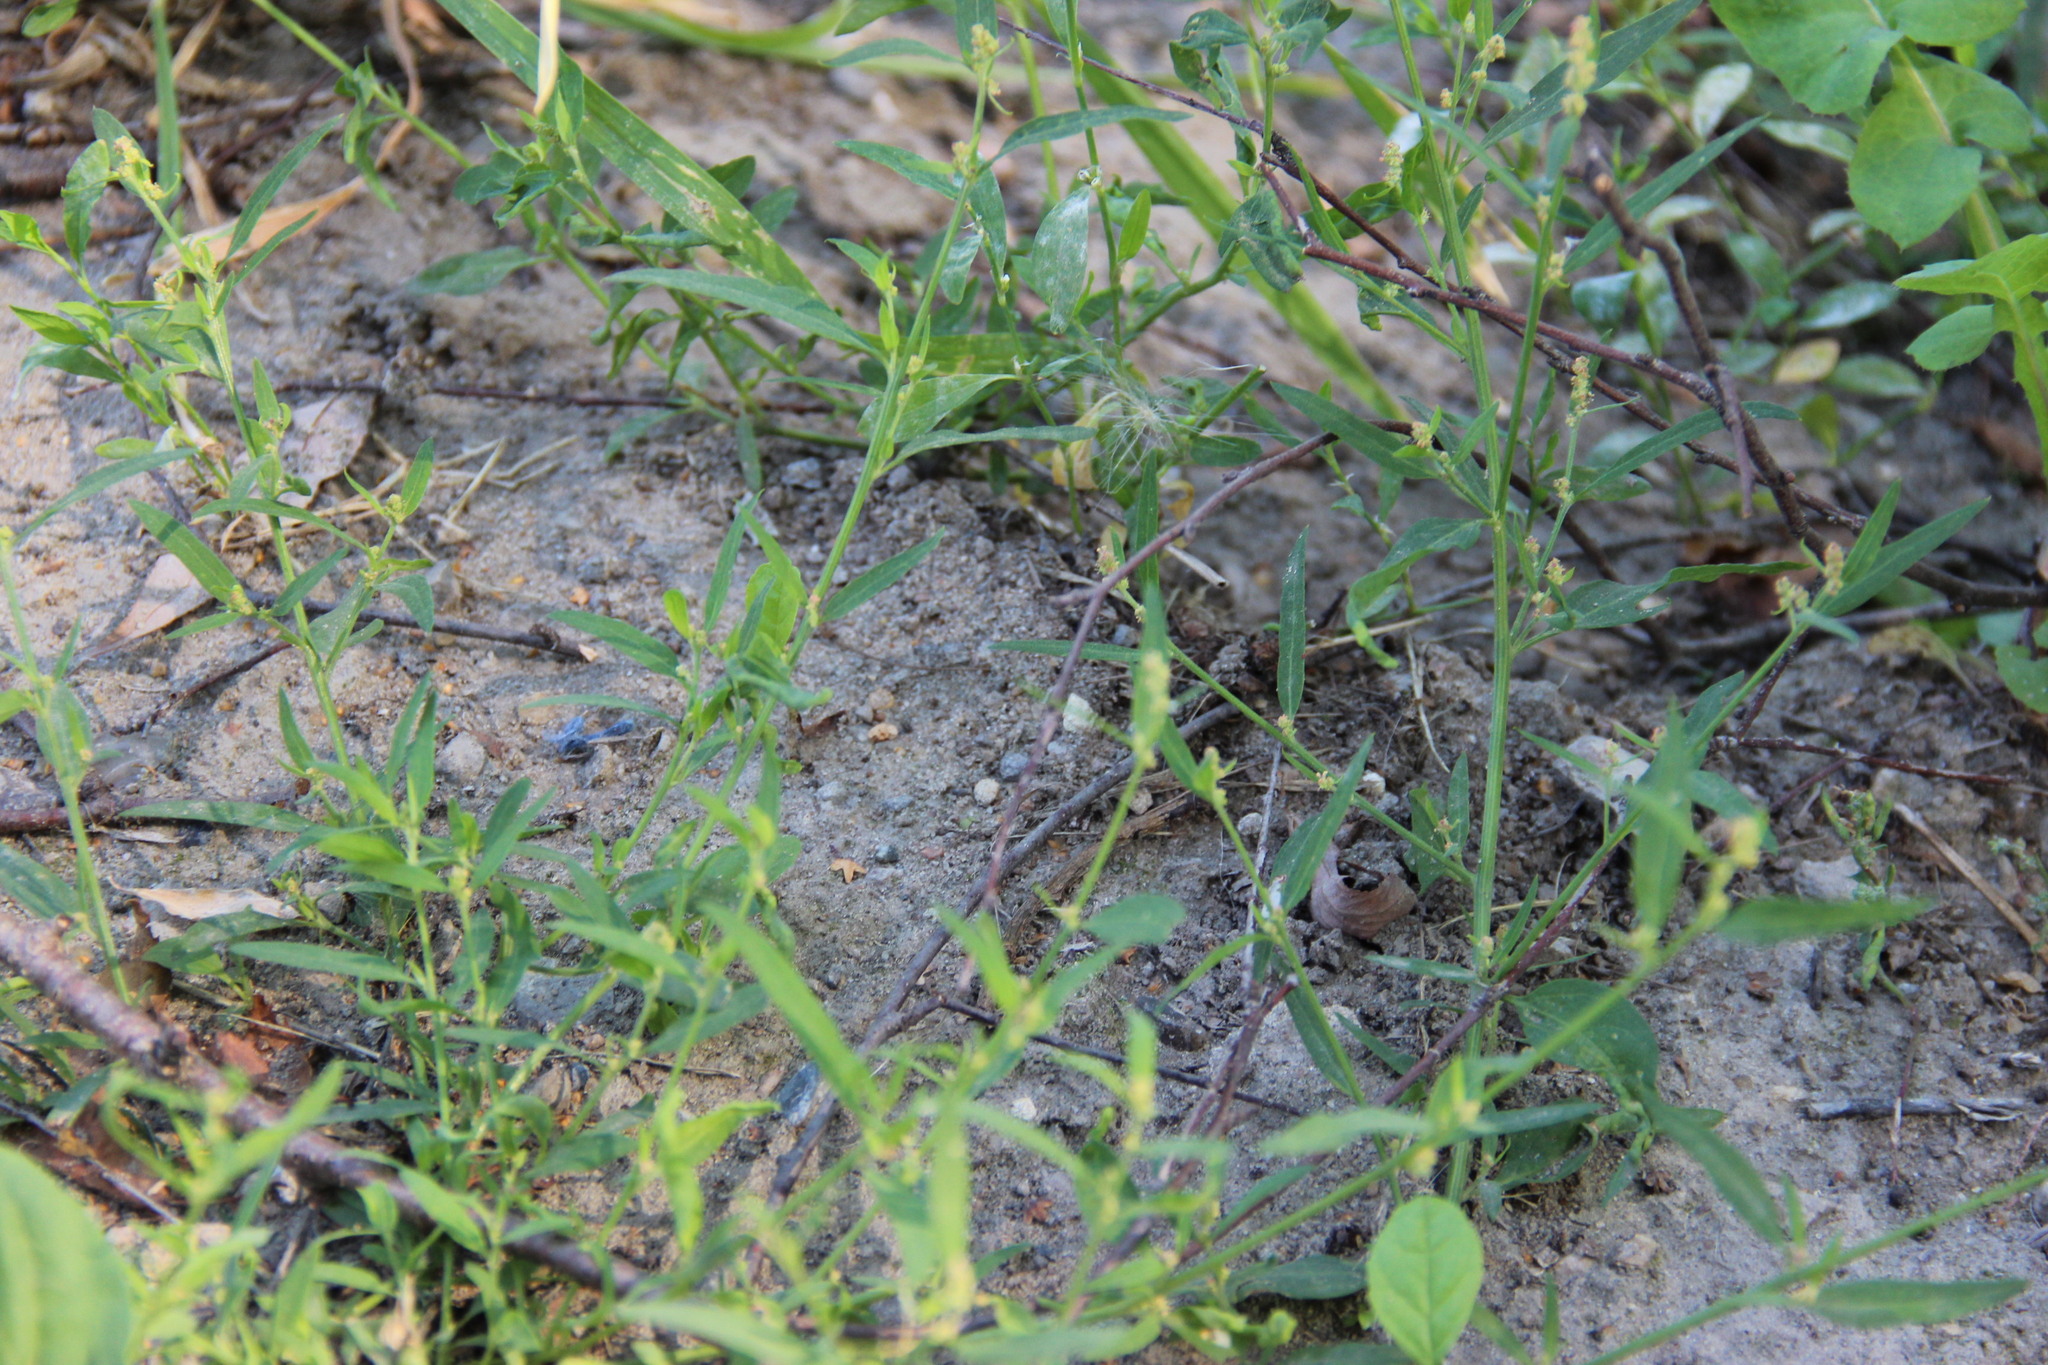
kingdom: Plantae
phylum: Tracheophyta
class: Magnoliopsida
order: Caryophyllales
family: Amaranthaceae
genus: Atriplex
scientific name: Atriplex patula
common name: Common orache
